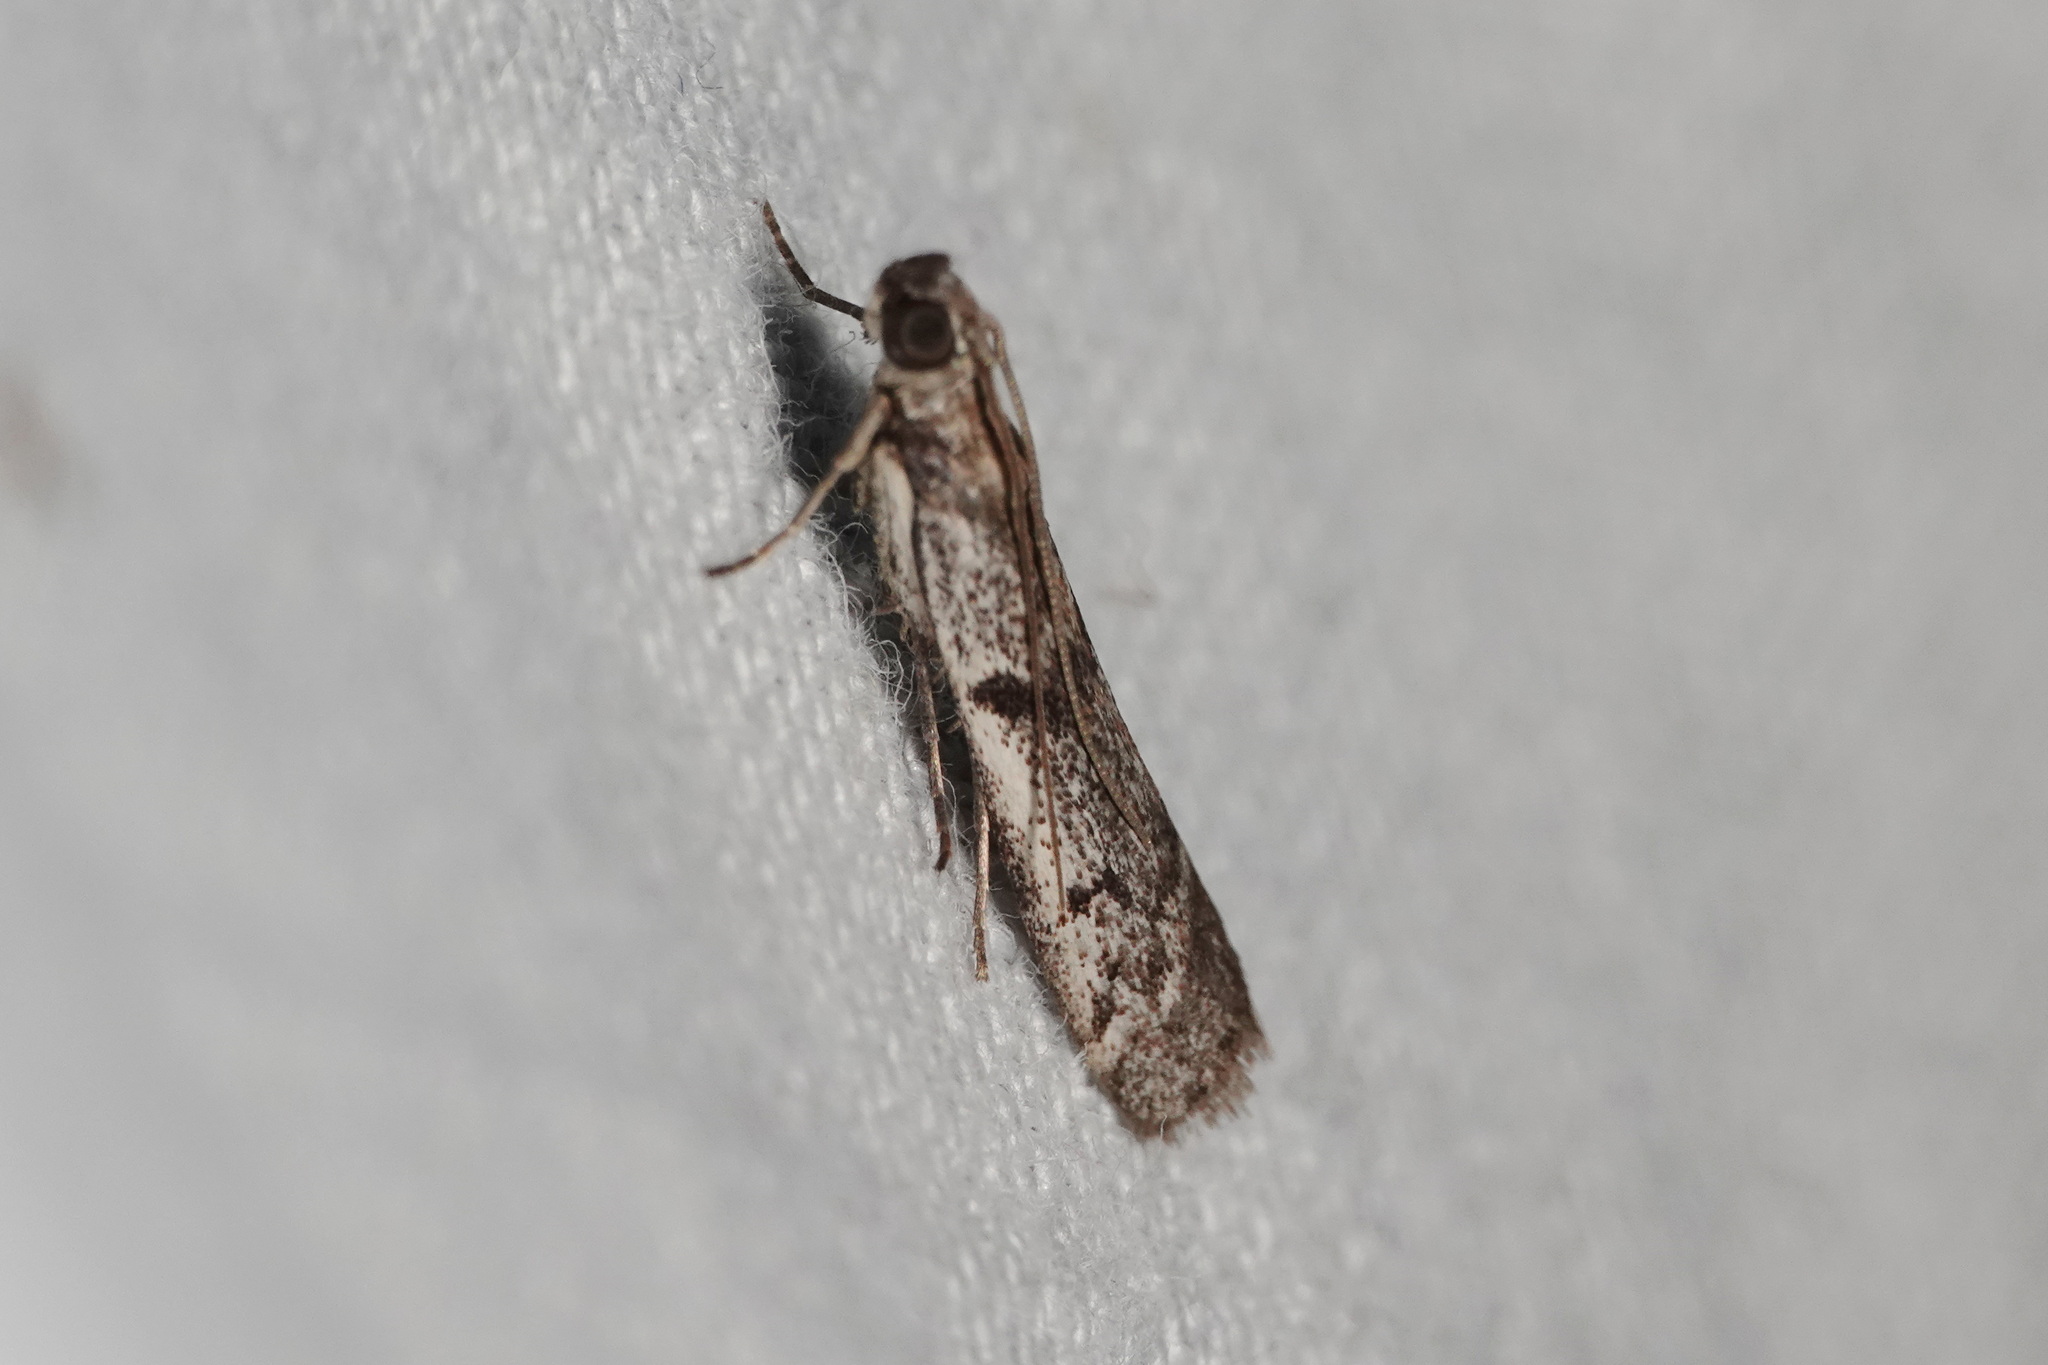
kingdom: Animalia
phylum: Arthropoda
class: Insecta
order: Lepidoptera
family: Pyralidae
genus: Patagoniodes
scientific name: Patagoniodes farinaria
